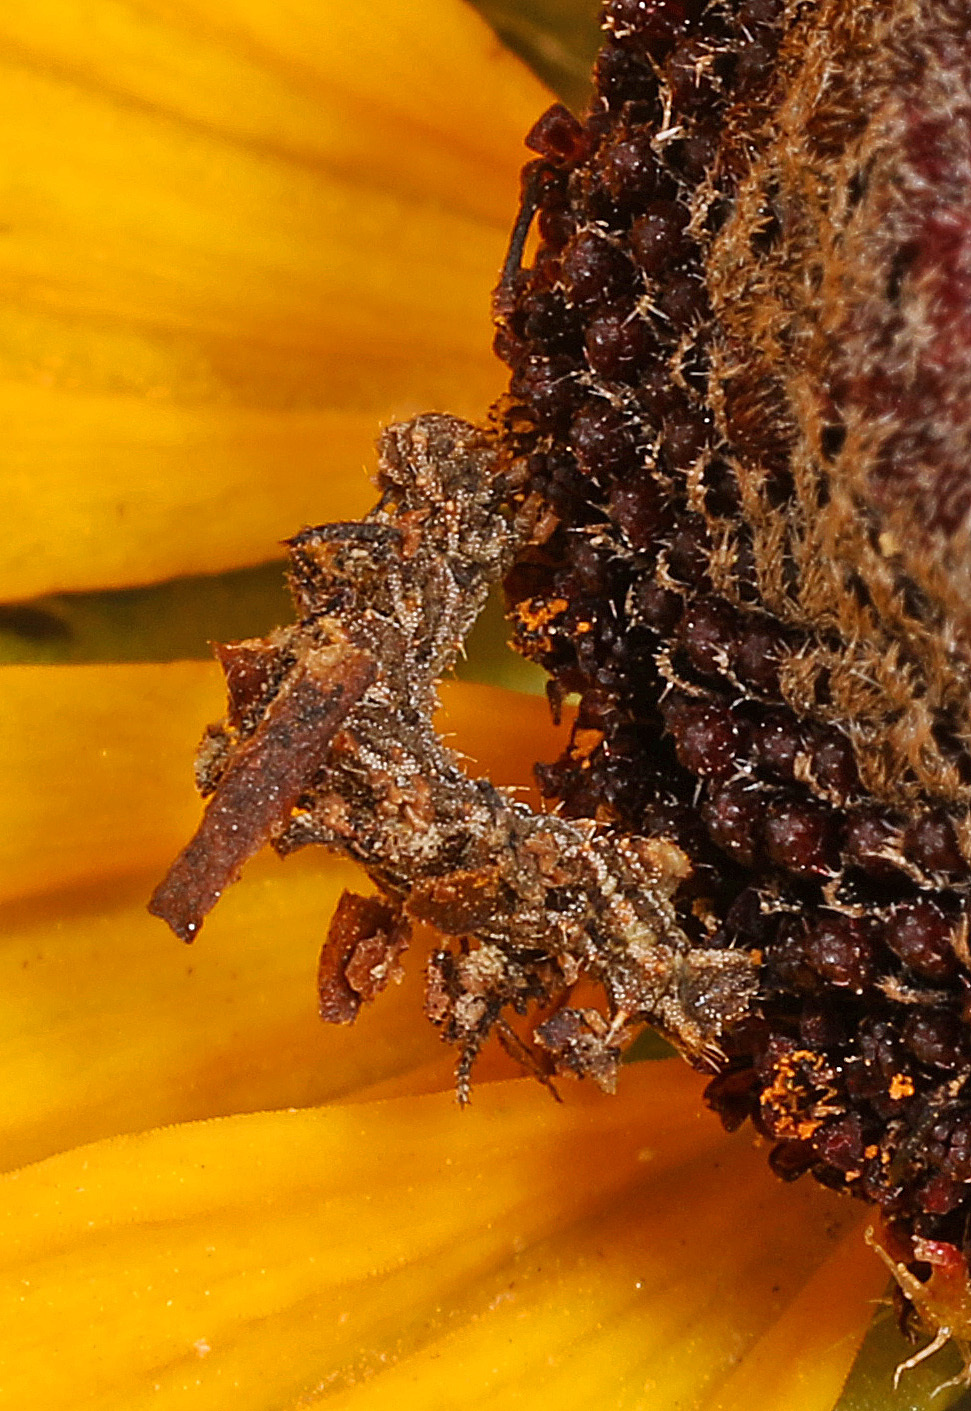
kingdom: Animalia
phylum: Arthropoda
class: Insecta
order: Lepidoptera
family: Geometridae
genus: Synchlora
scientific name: Synchlora aerata
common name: Wavy-lined emerald
